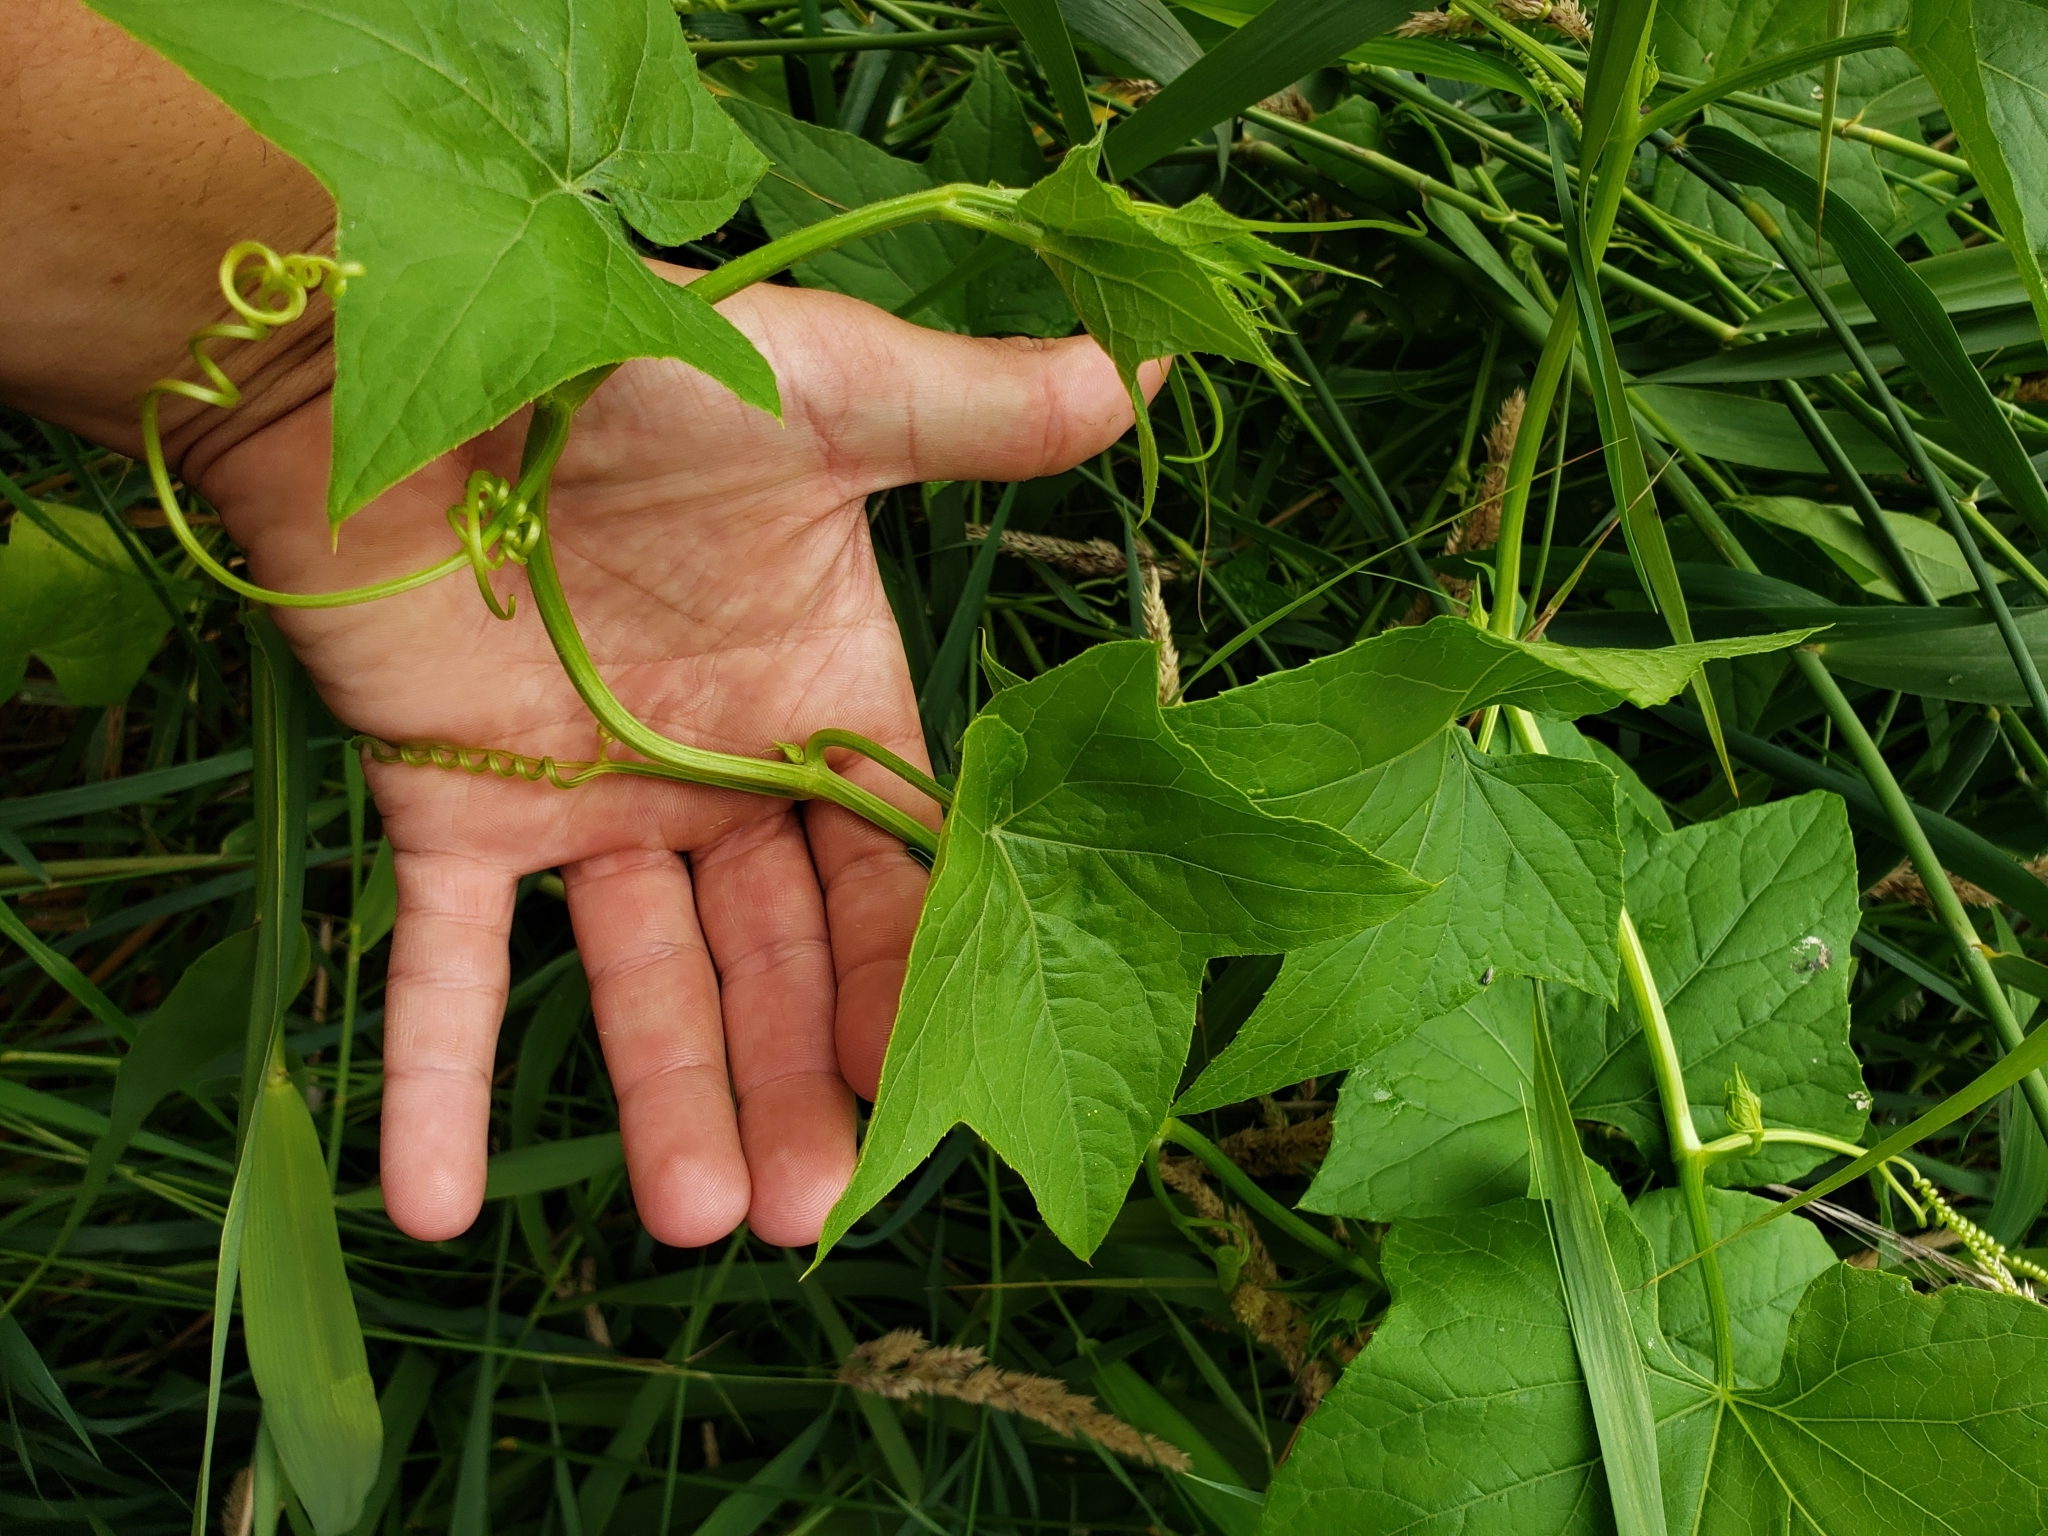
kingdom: Plantae
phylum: Tracheophyta
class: Magnoliopsida
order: Cucurbitales
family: Cucurbitaceae
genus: Echinocystis
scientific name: Echinocystis lobata
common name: Wild cucumber
